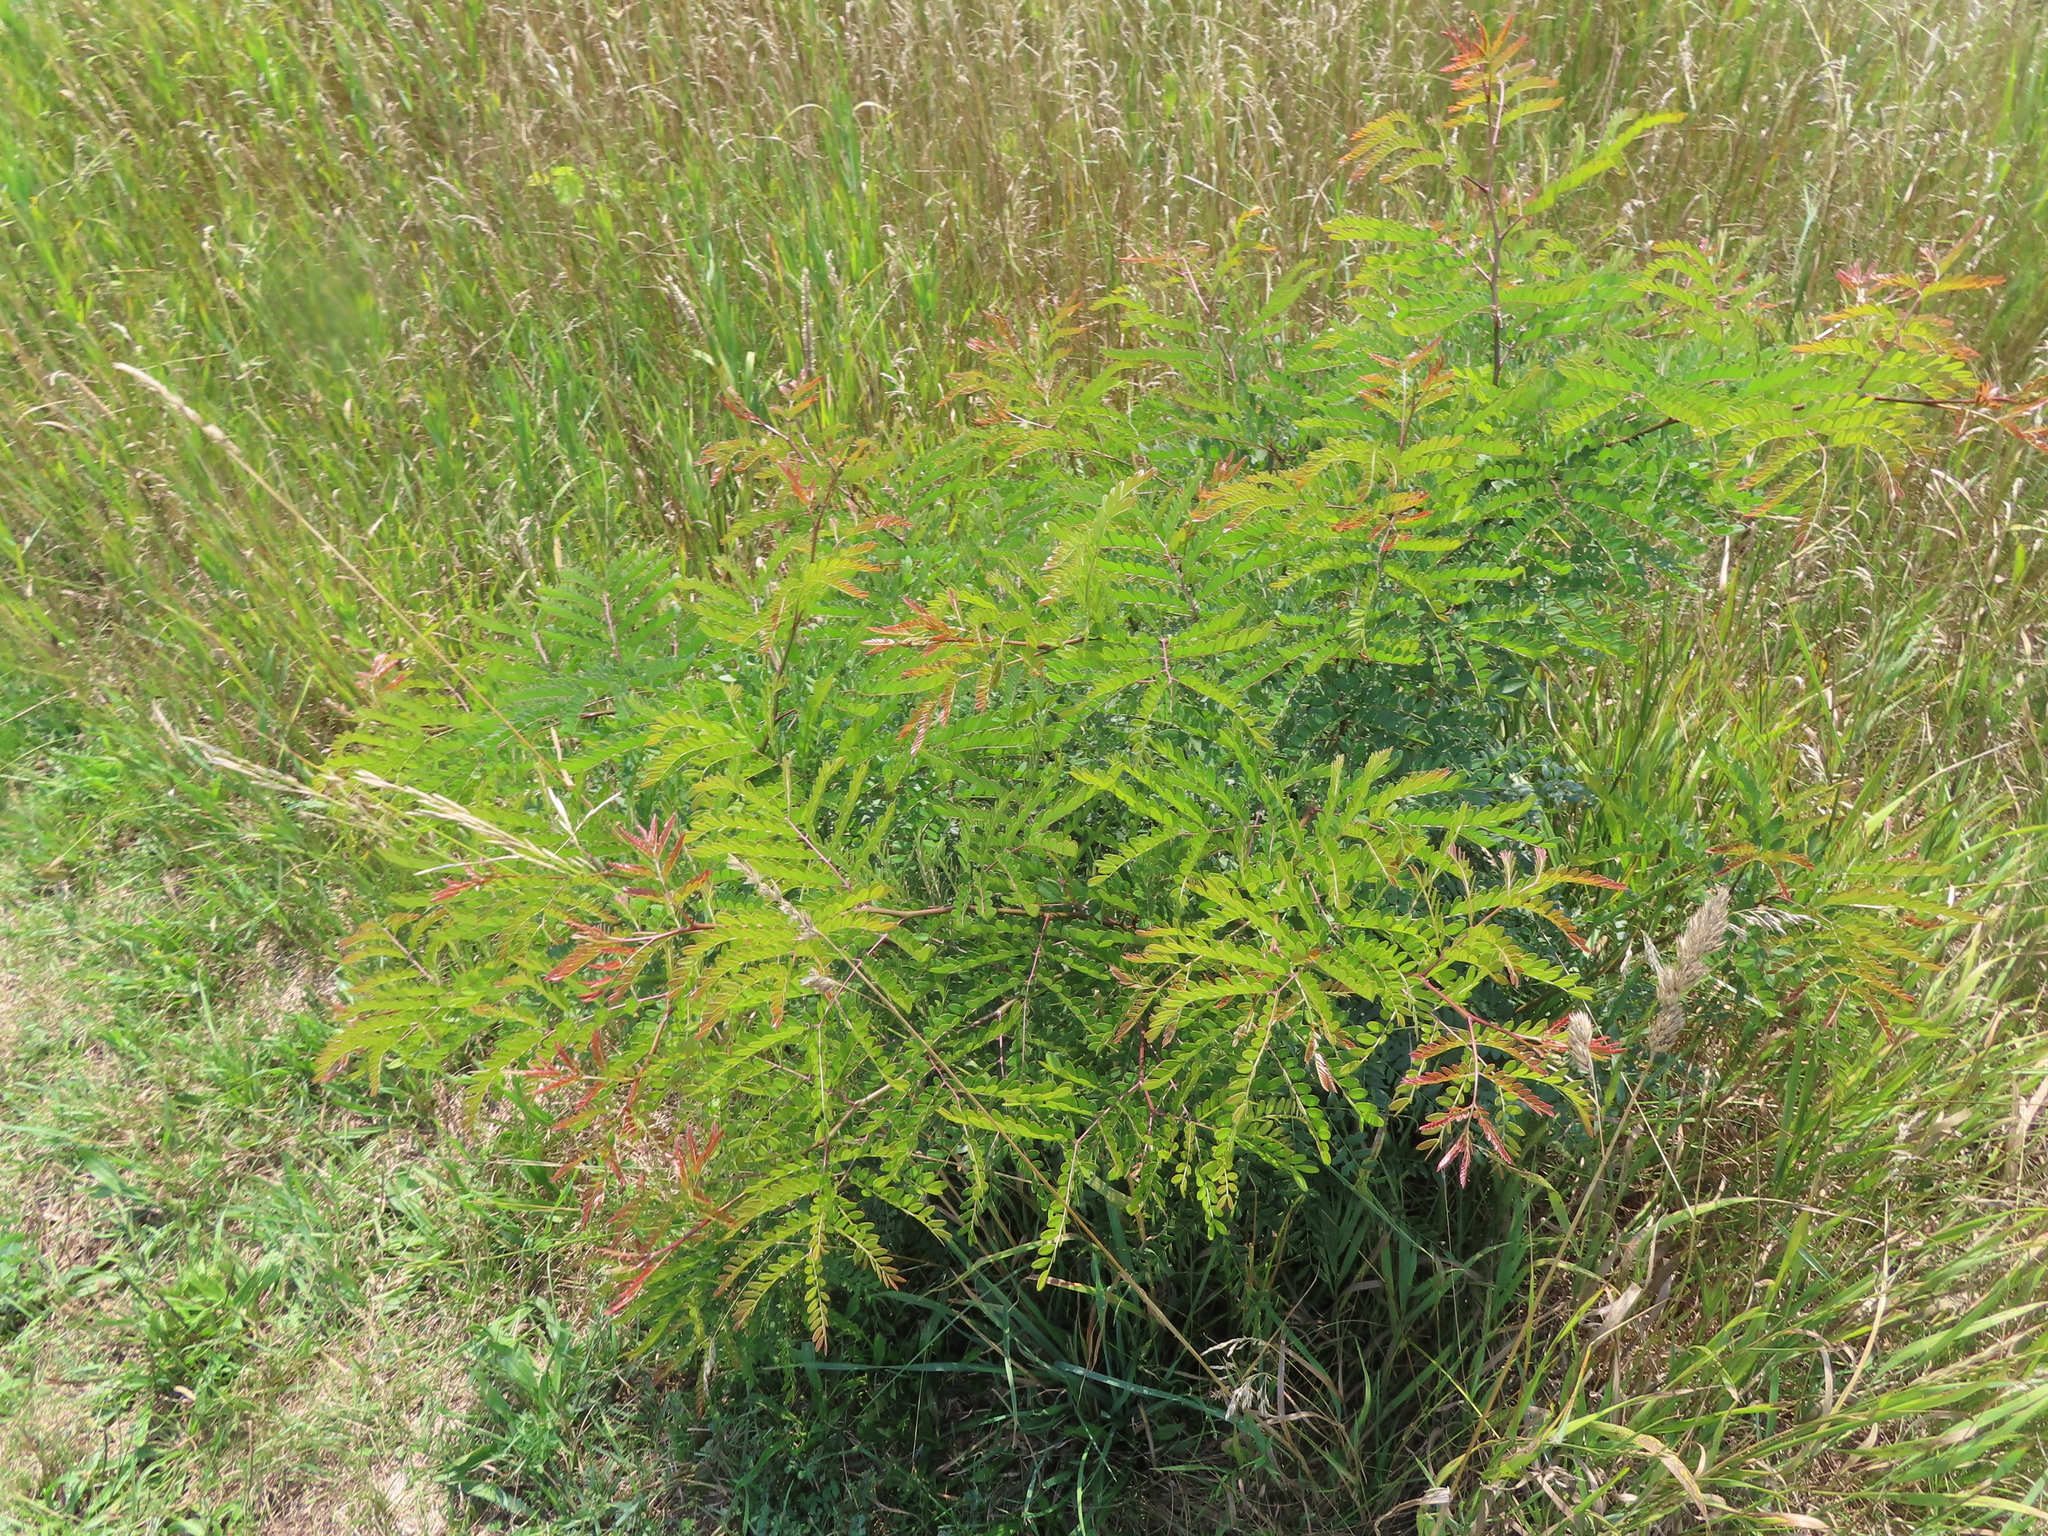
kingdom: Plantae
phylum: Tracheophyta
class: Magnoliopsida
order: Fabales
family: Fabaceae
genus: Gleditsia
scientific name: Gleditsia triacanthos
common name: Common honeylocust
